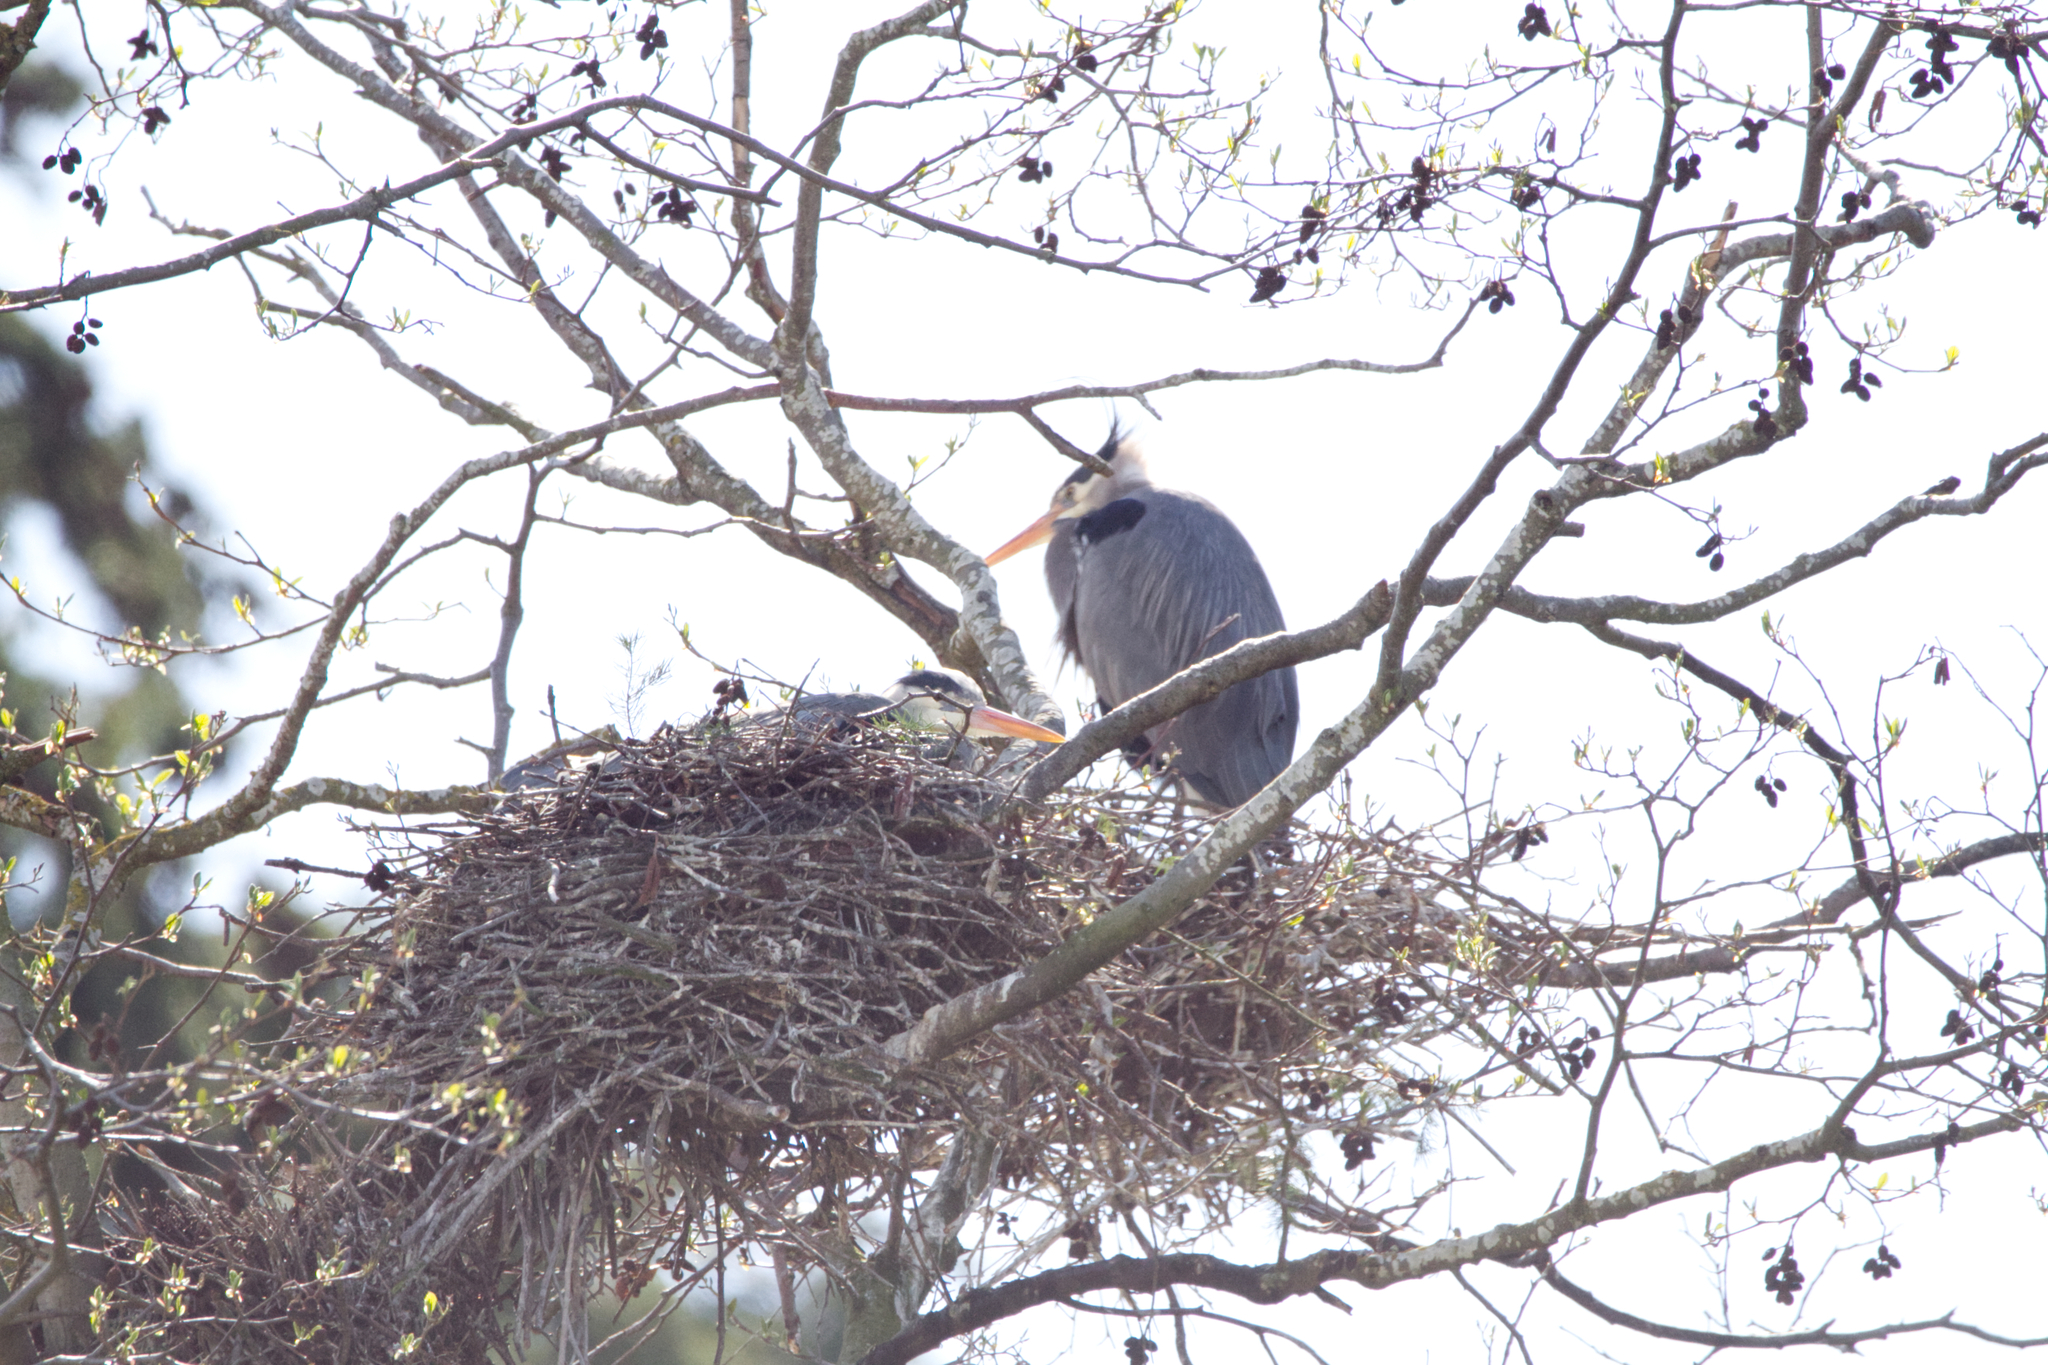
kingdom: Animalia
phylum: Chordata
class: Aves
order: Pelecaniformes
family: Ardeidae
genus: Ardea
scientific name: Ardea herodias
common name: Great blue heron
